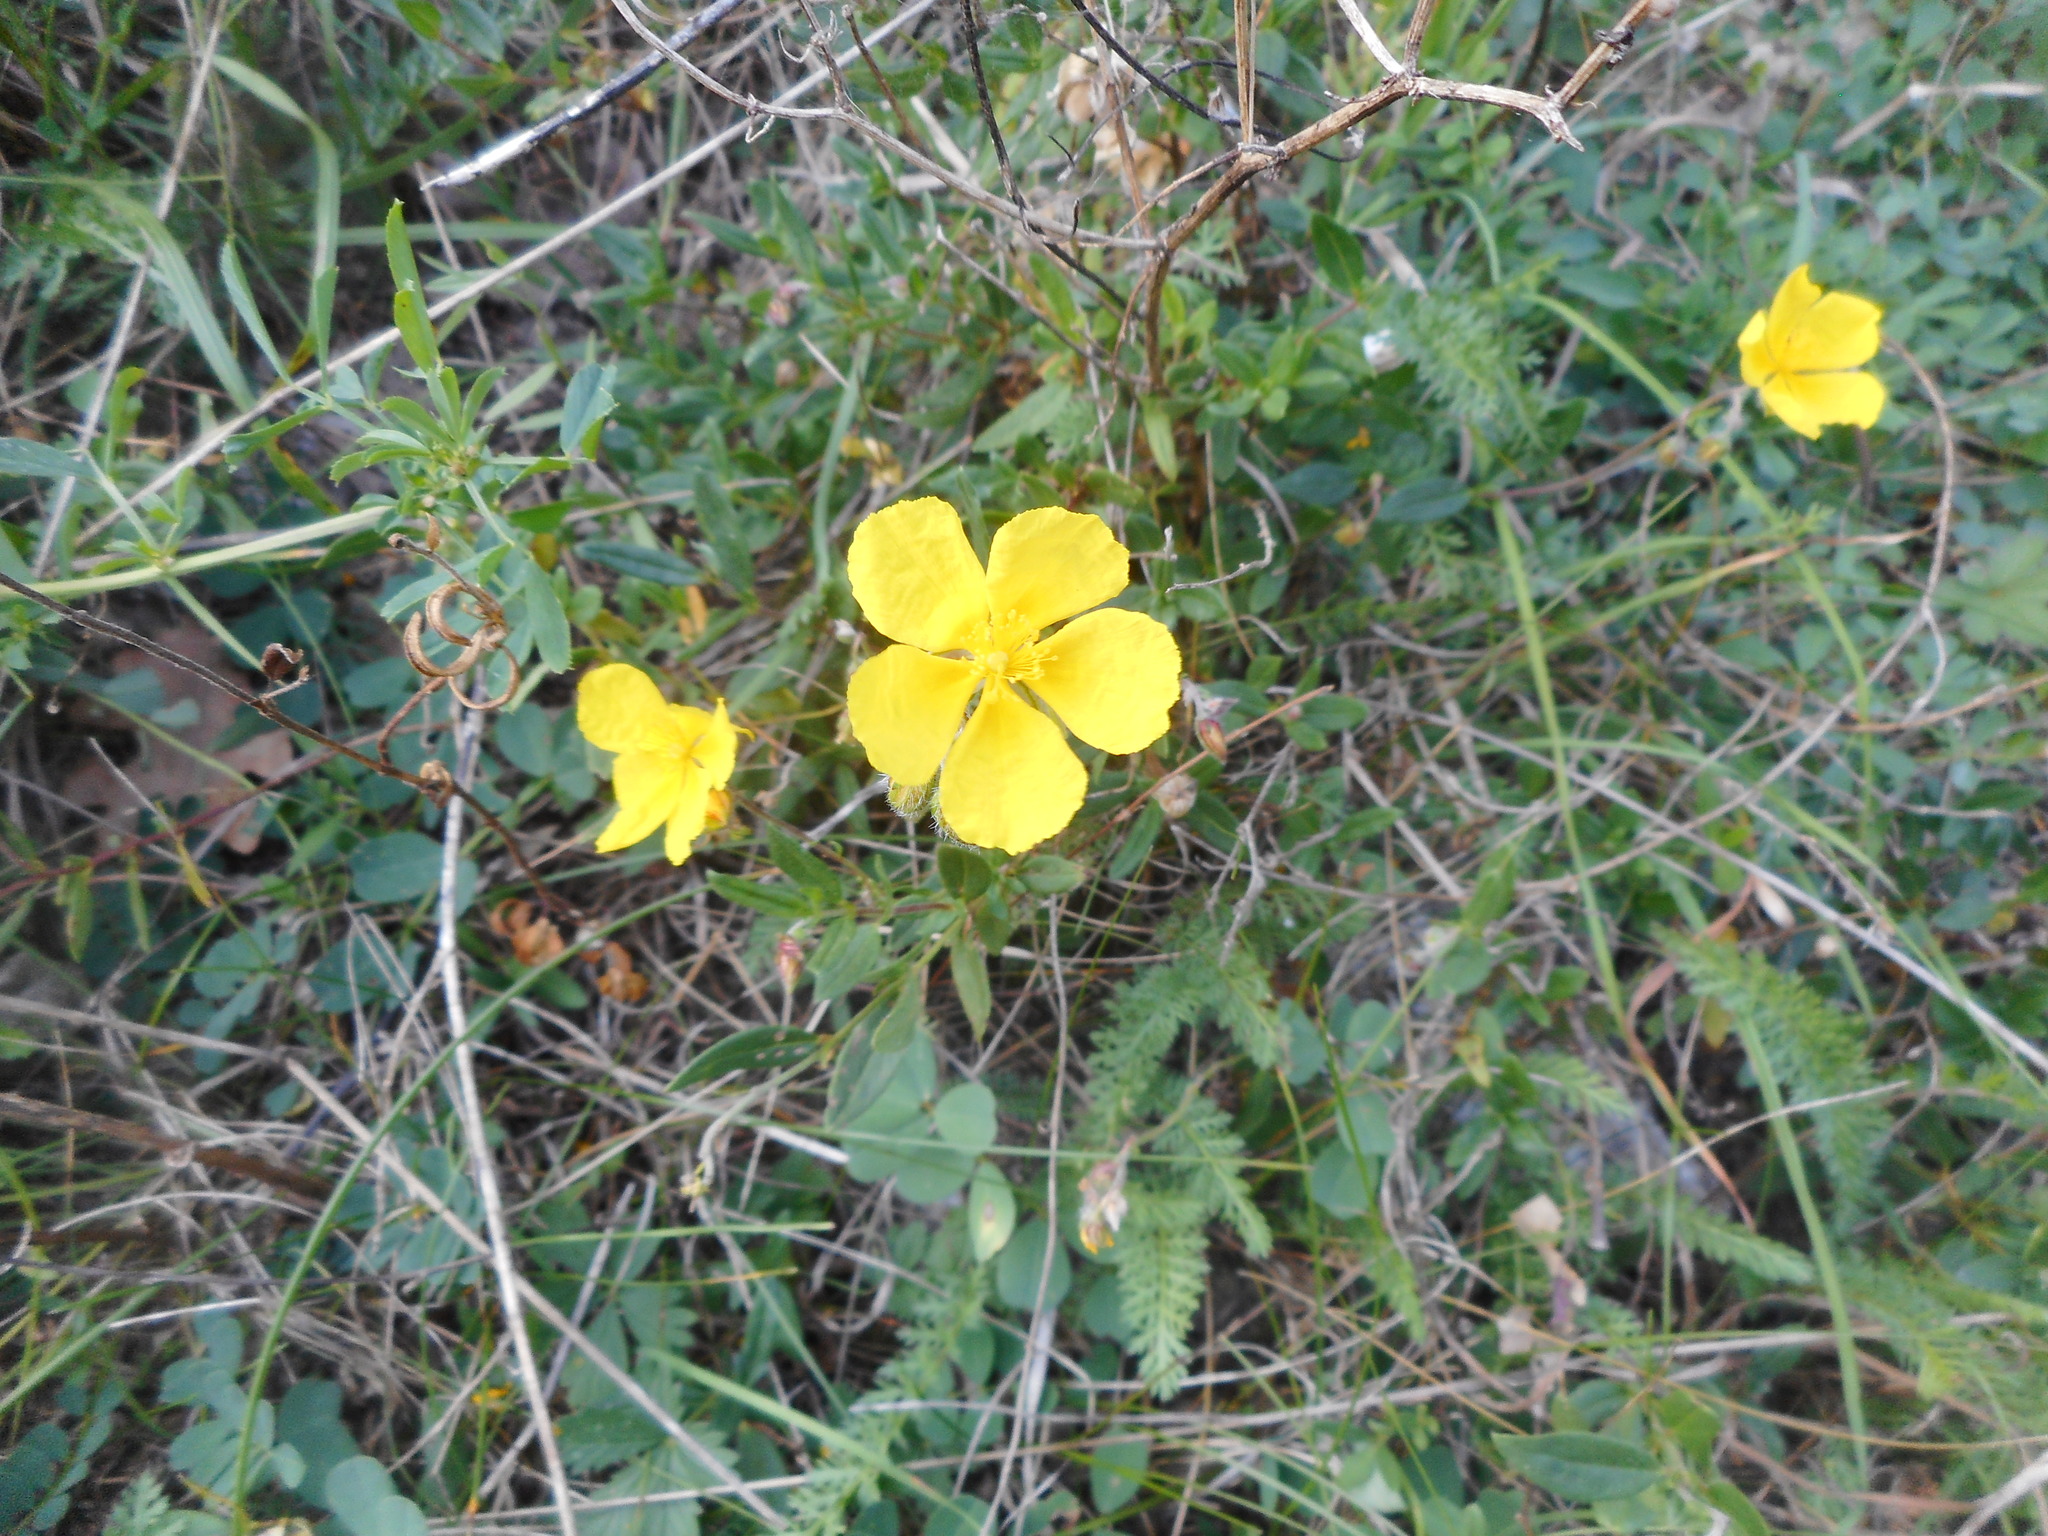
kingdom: Plantae
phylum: Tracheophyta
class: Magnoliopsida
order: Malvales
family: Cistaceae
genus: Helianthemum
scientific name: Helianthemum nummularium
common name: Common rock-rose
